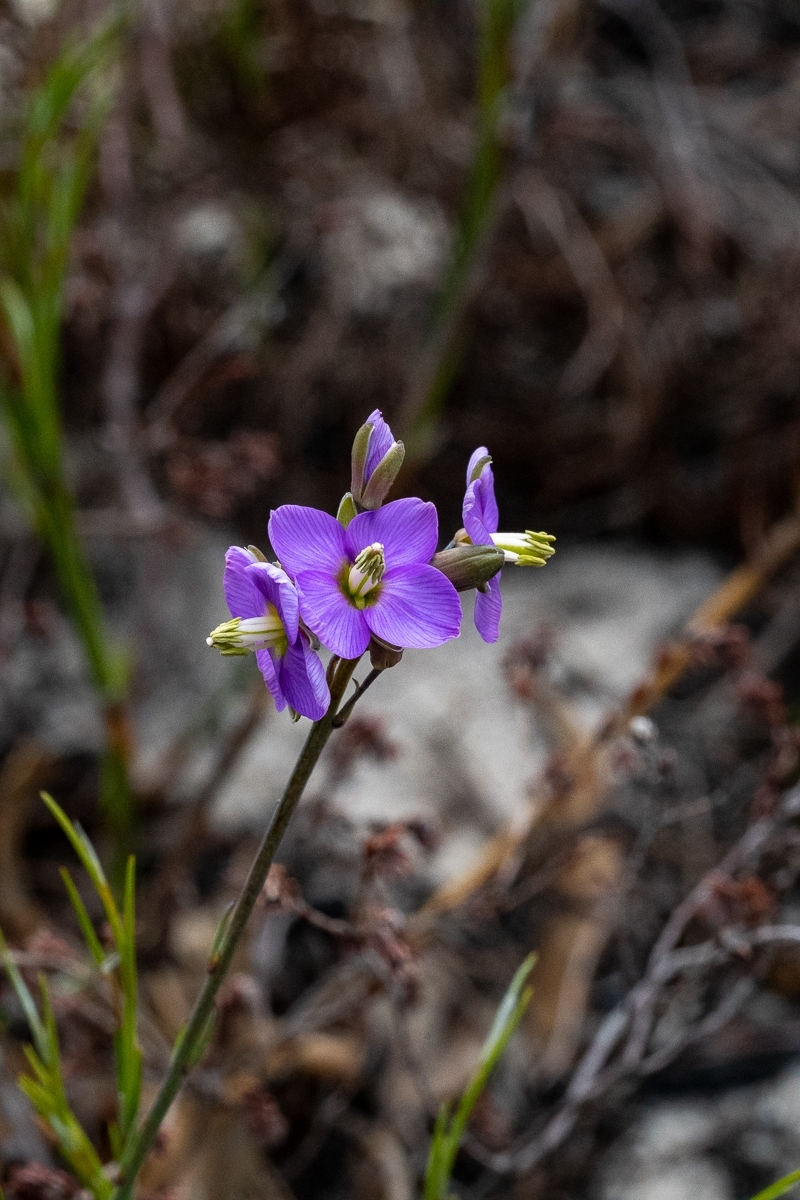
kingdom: Plantae
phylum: Tracheophyta
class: Magnoliopsida
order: Brassicales
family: Brassicaceae
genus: Heliophila
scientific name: Heliophila linearis
